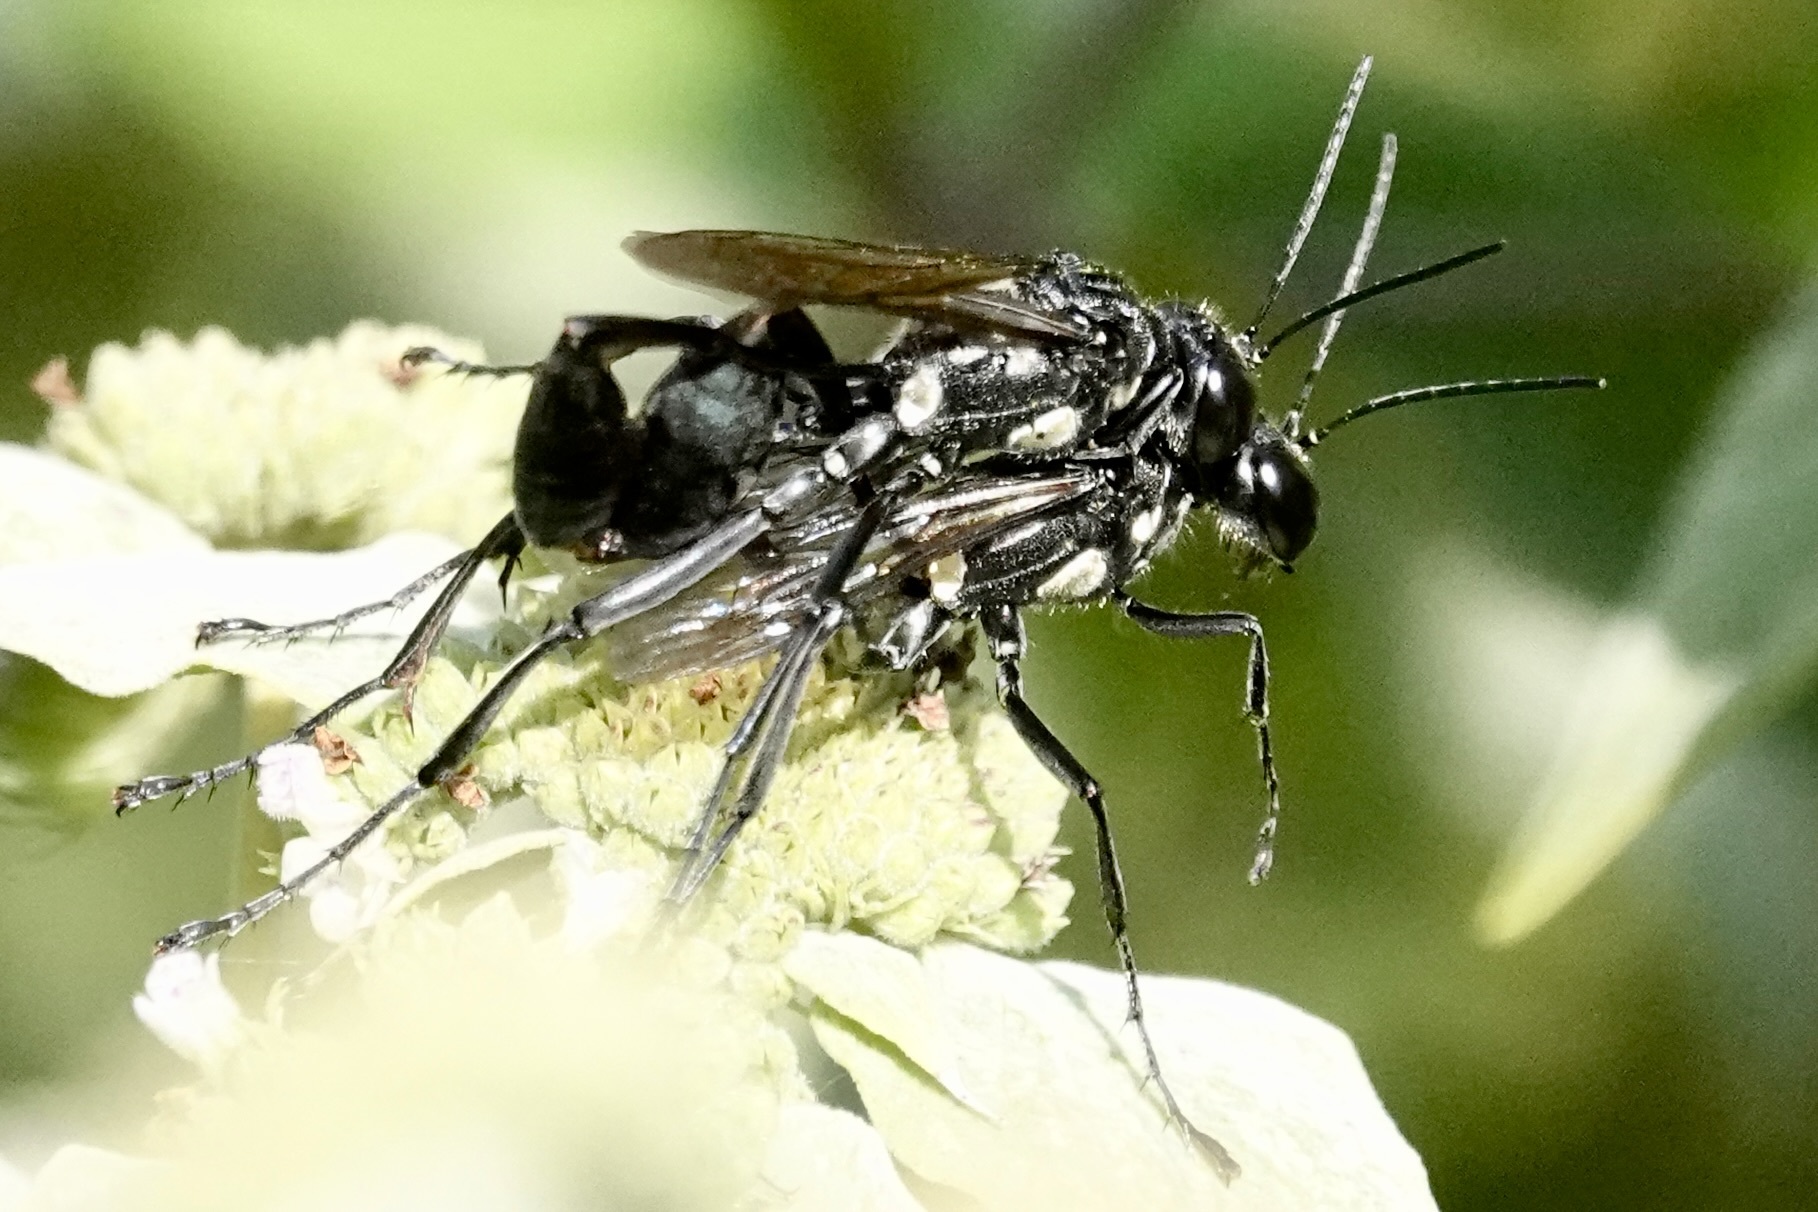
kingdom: Animalia
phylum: Arthropoda
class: Insecta
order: Hymenoptera
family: Sphecidae
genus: Eremnophila
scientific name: Eremnophila aureonotata
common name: Gold-marked thread-waisted wasp
